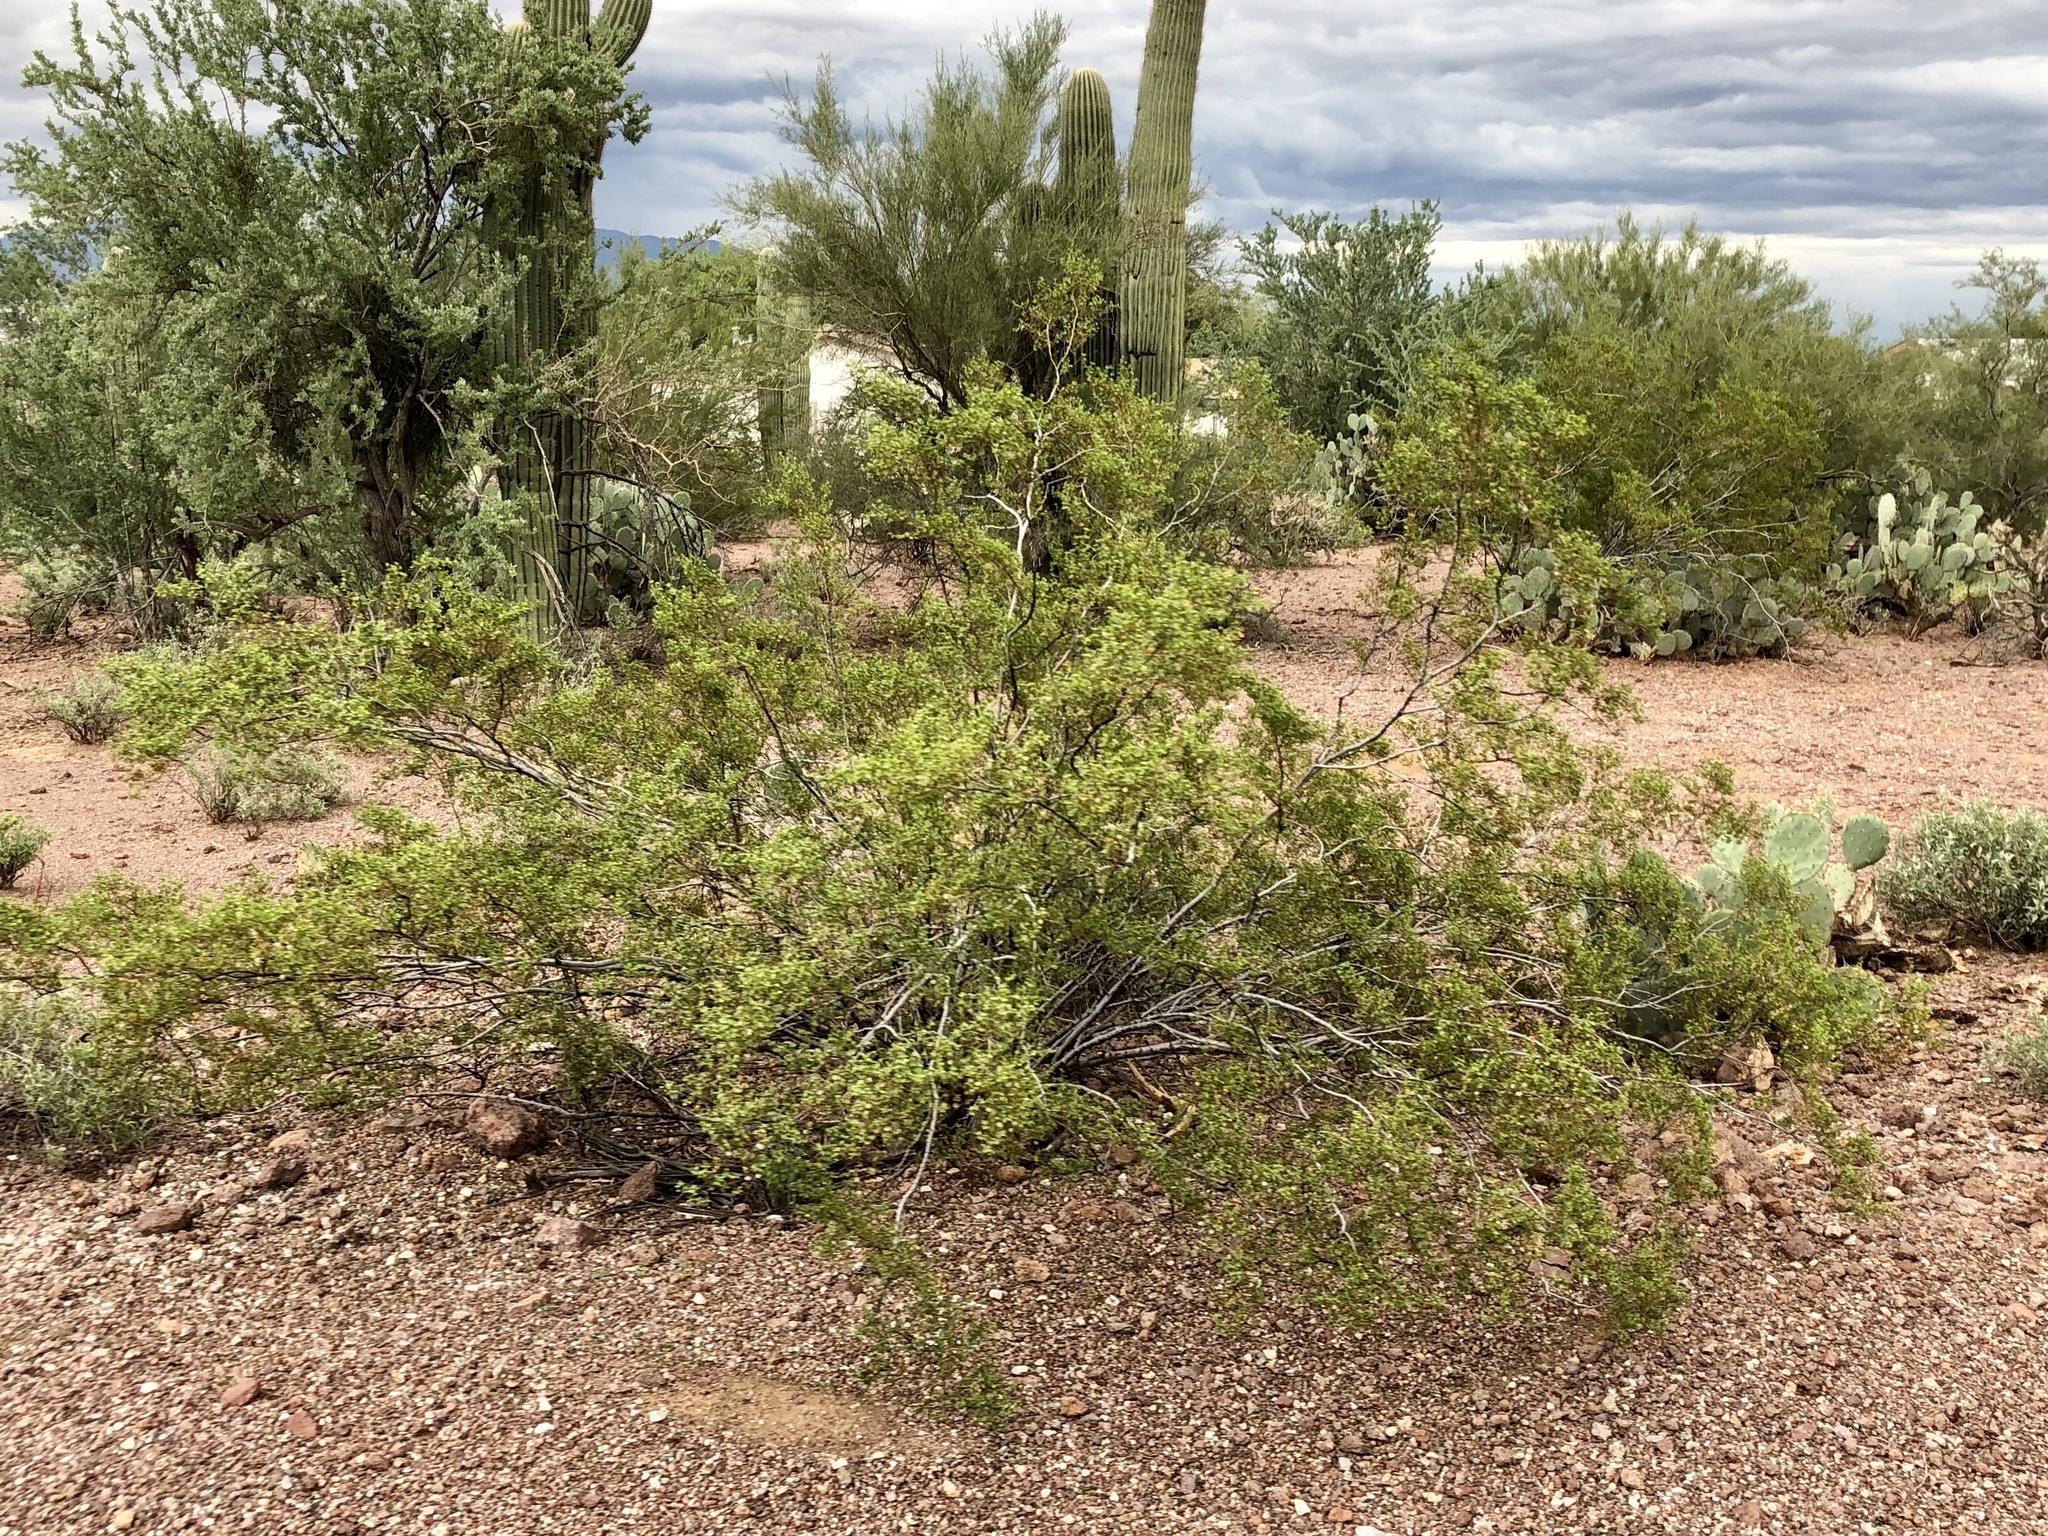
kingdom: Plantae
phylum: Tracheophyta
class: Magnoliopsida
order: Zygophyllales
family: Zygophyllaceae
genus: Larrea
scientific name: Larrea tridentata
